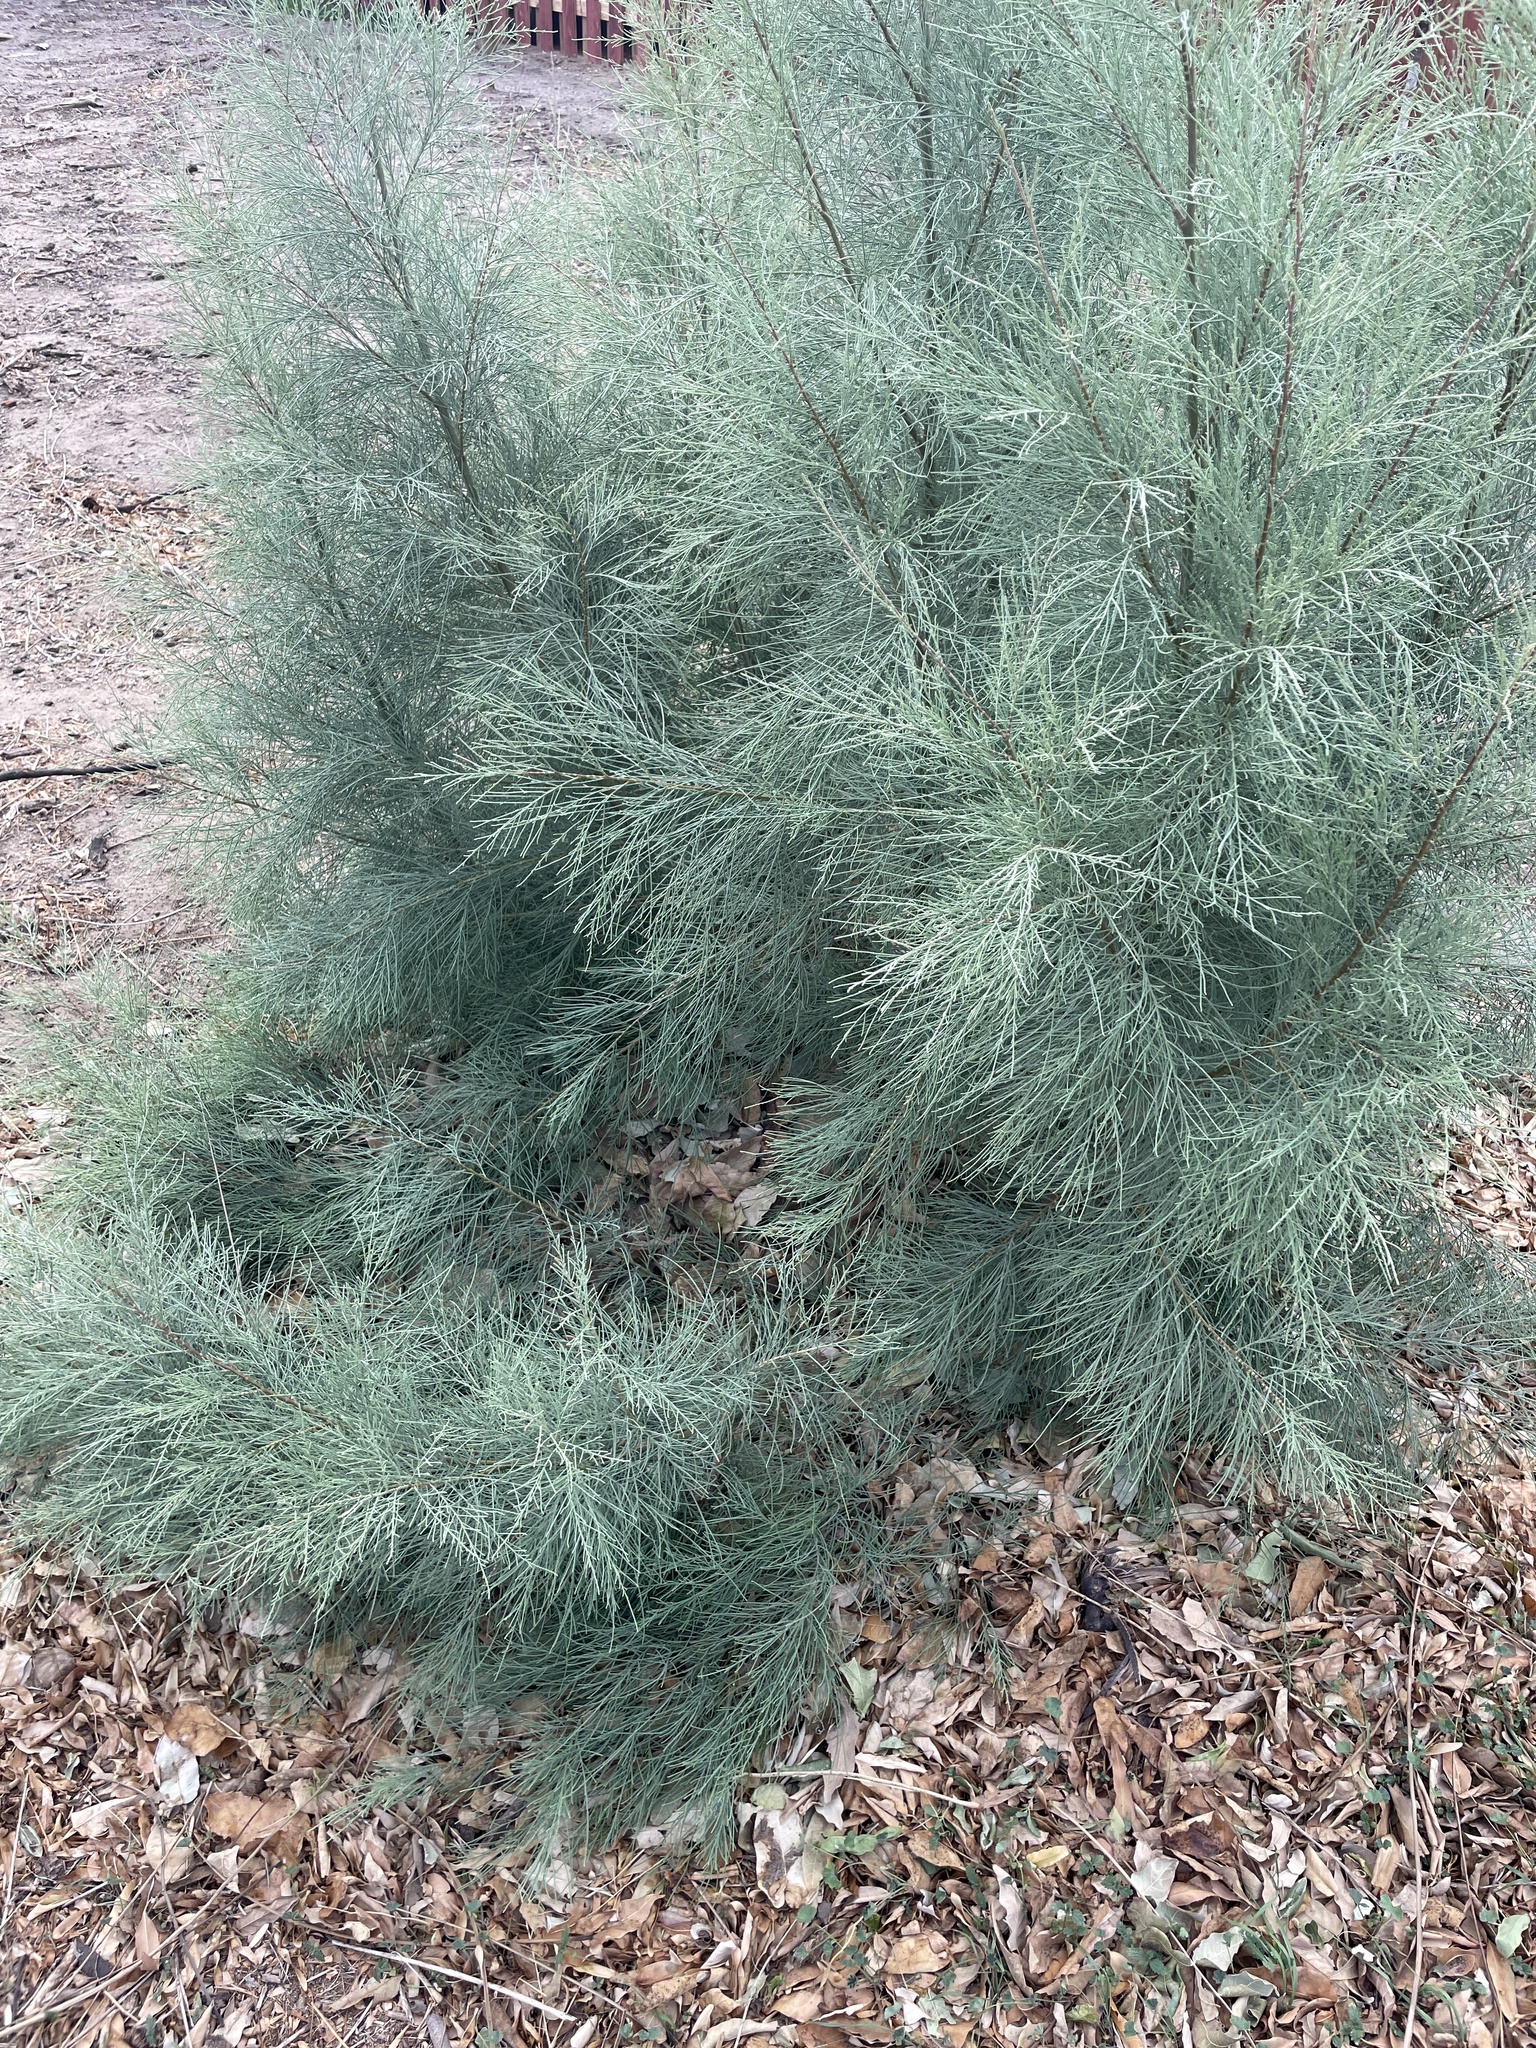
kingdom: Plantae
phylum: Tracheophyta
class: Magnoliopsida
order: Caryophyllales
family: Tamaricaceae
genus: Tamarix
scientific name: Tamarix aphylla
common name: Athel tamarisk
